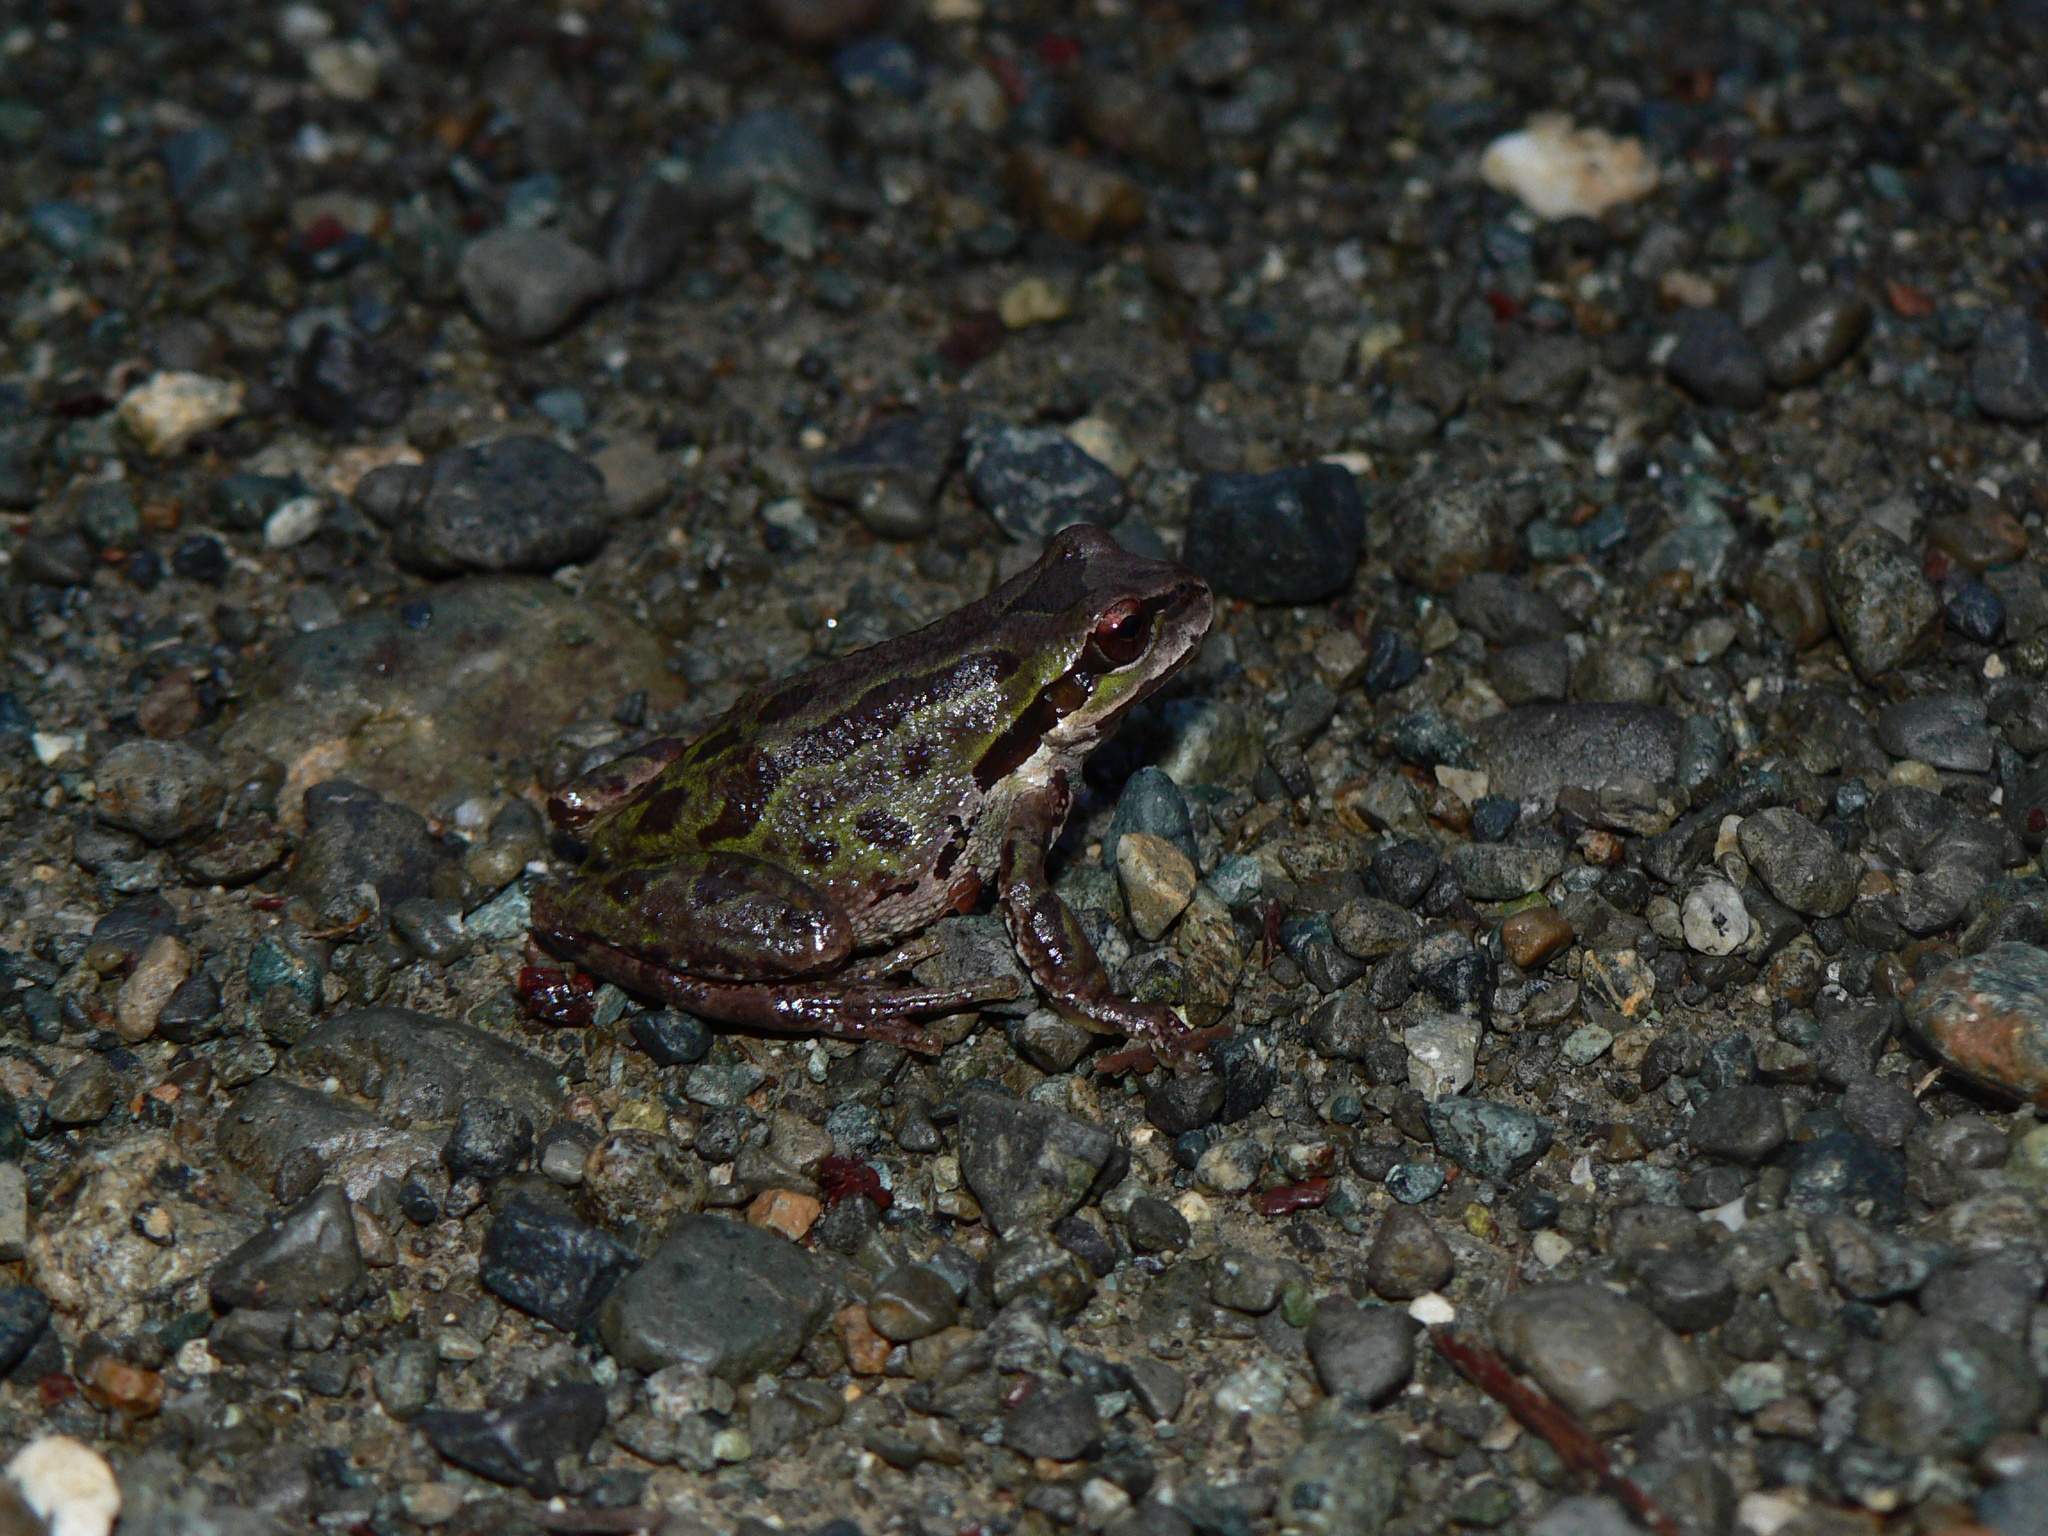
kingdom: Animalia
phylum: Chordata
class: Amphibia
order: Anura
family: Hylidae
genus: Pseudacris
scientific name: Pseudacris regilla
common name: Pacific chorus frog
